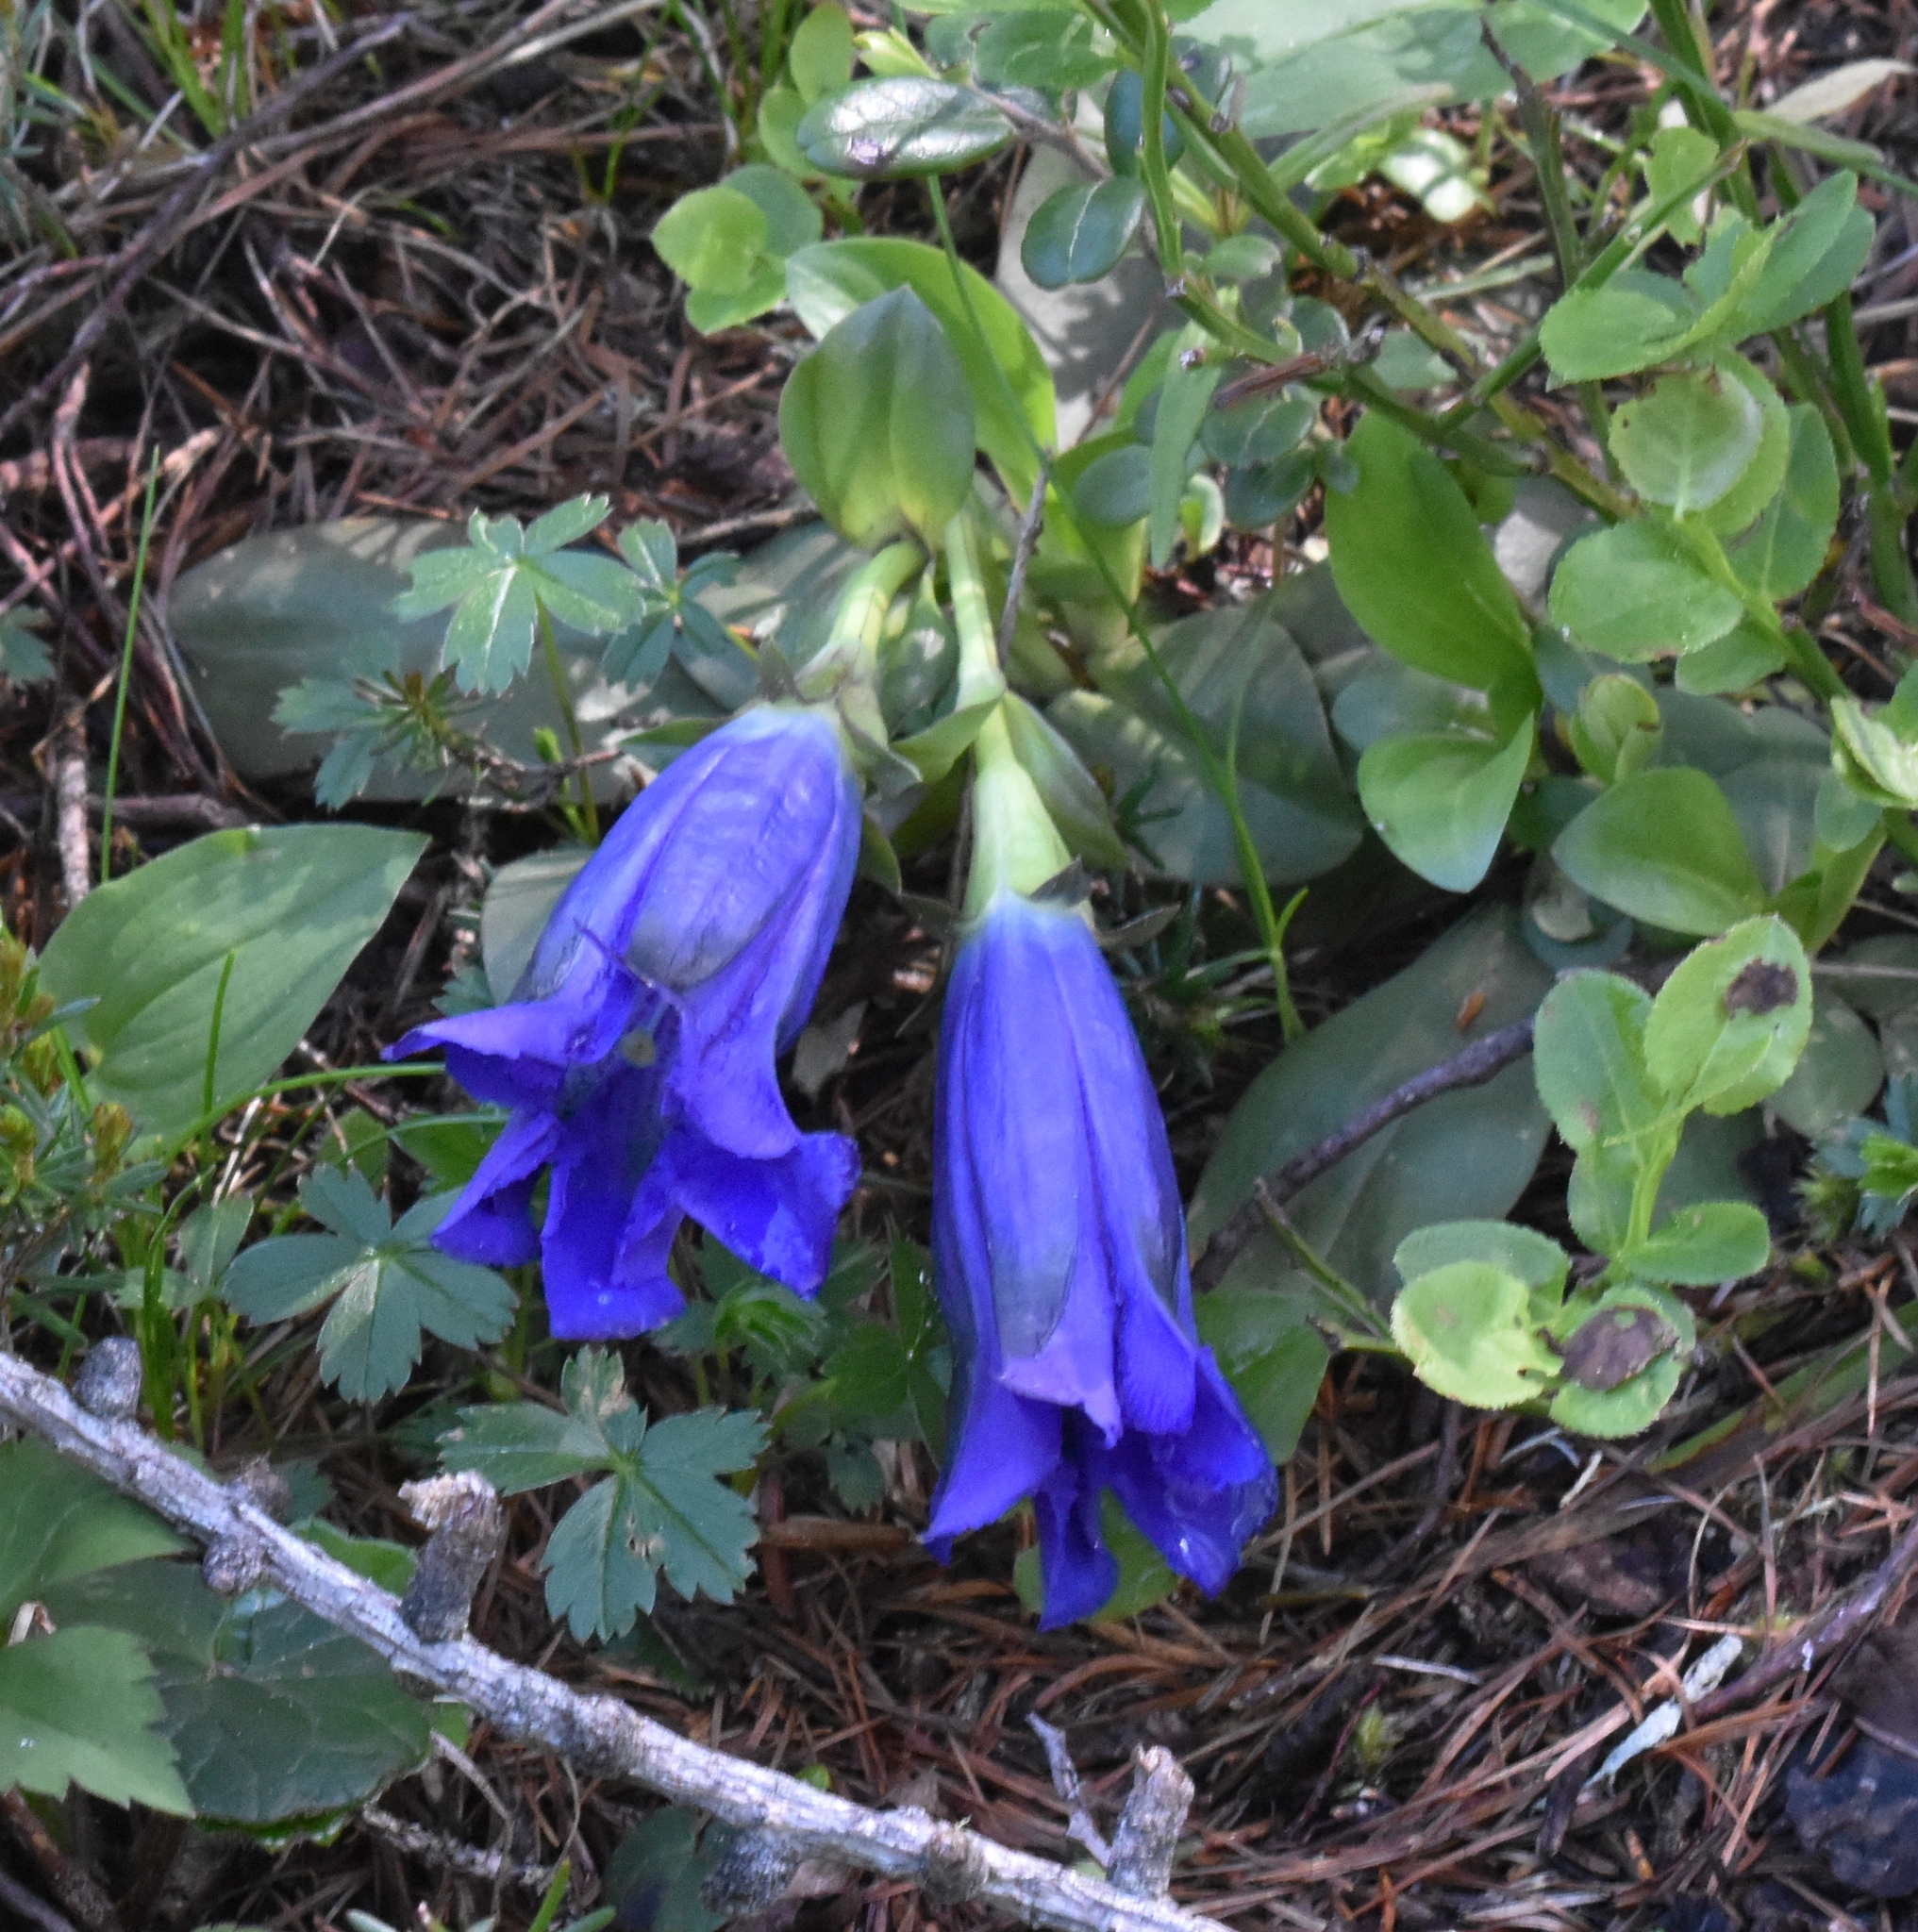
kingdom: Plantae
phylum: Tracheophyta
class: Magnoliopsida
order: Gentianales
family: Gentianaceae
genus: Gentiana
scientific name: Gentiana acaulis
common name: Trumpet gentian
